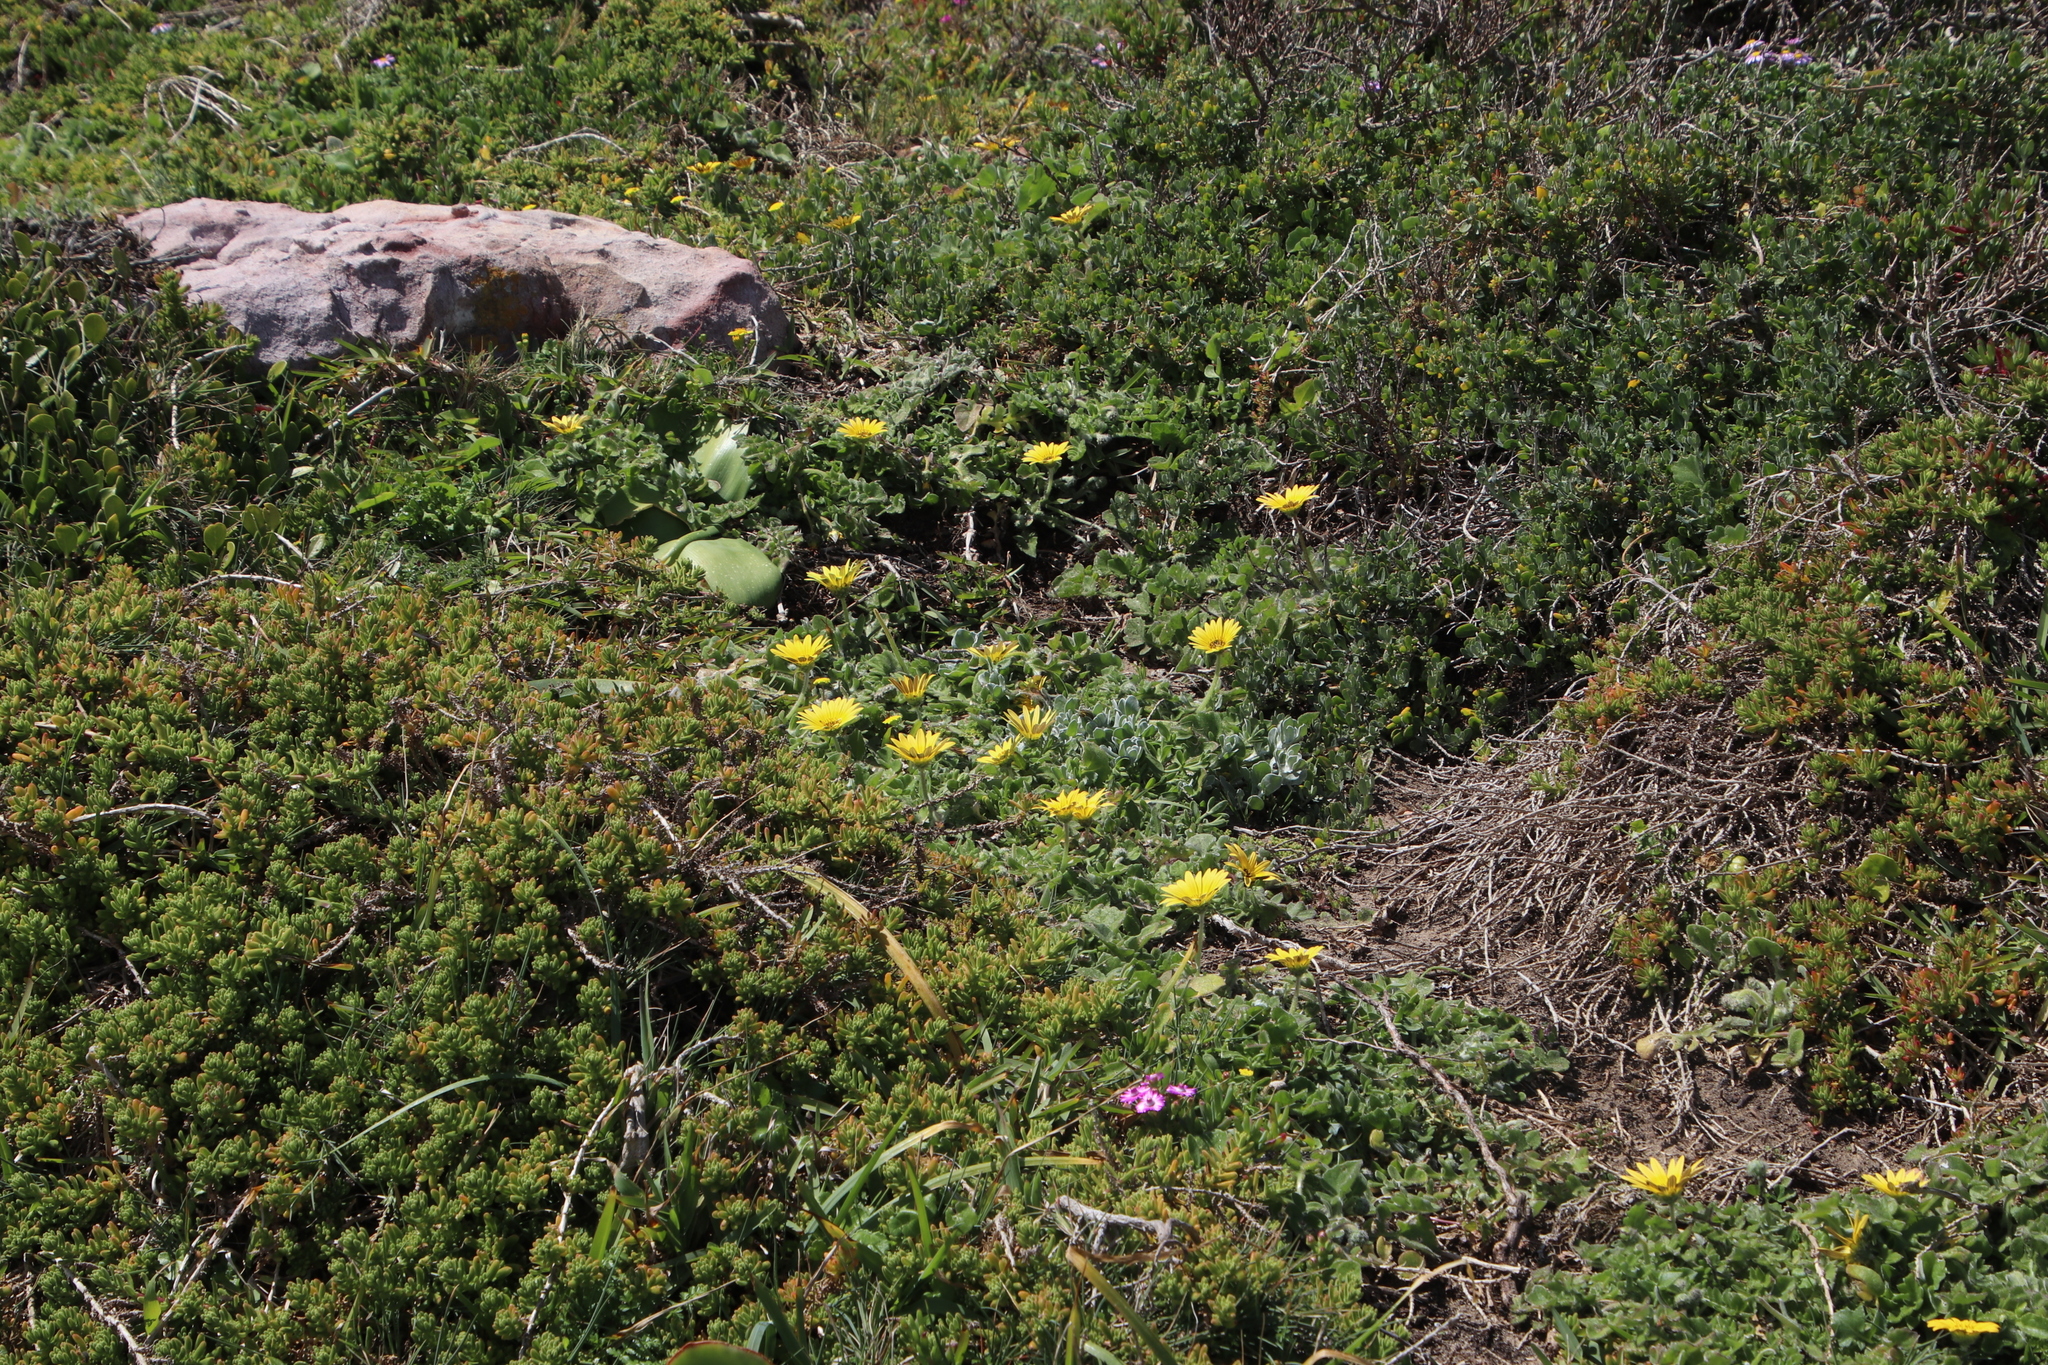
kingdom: Plantae
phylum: Tracheophyta
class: Magnoliopsida
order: Asterales
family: Asteraceae
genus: Arctotheca
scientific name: Arctotheca calendula
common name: Capeweed
